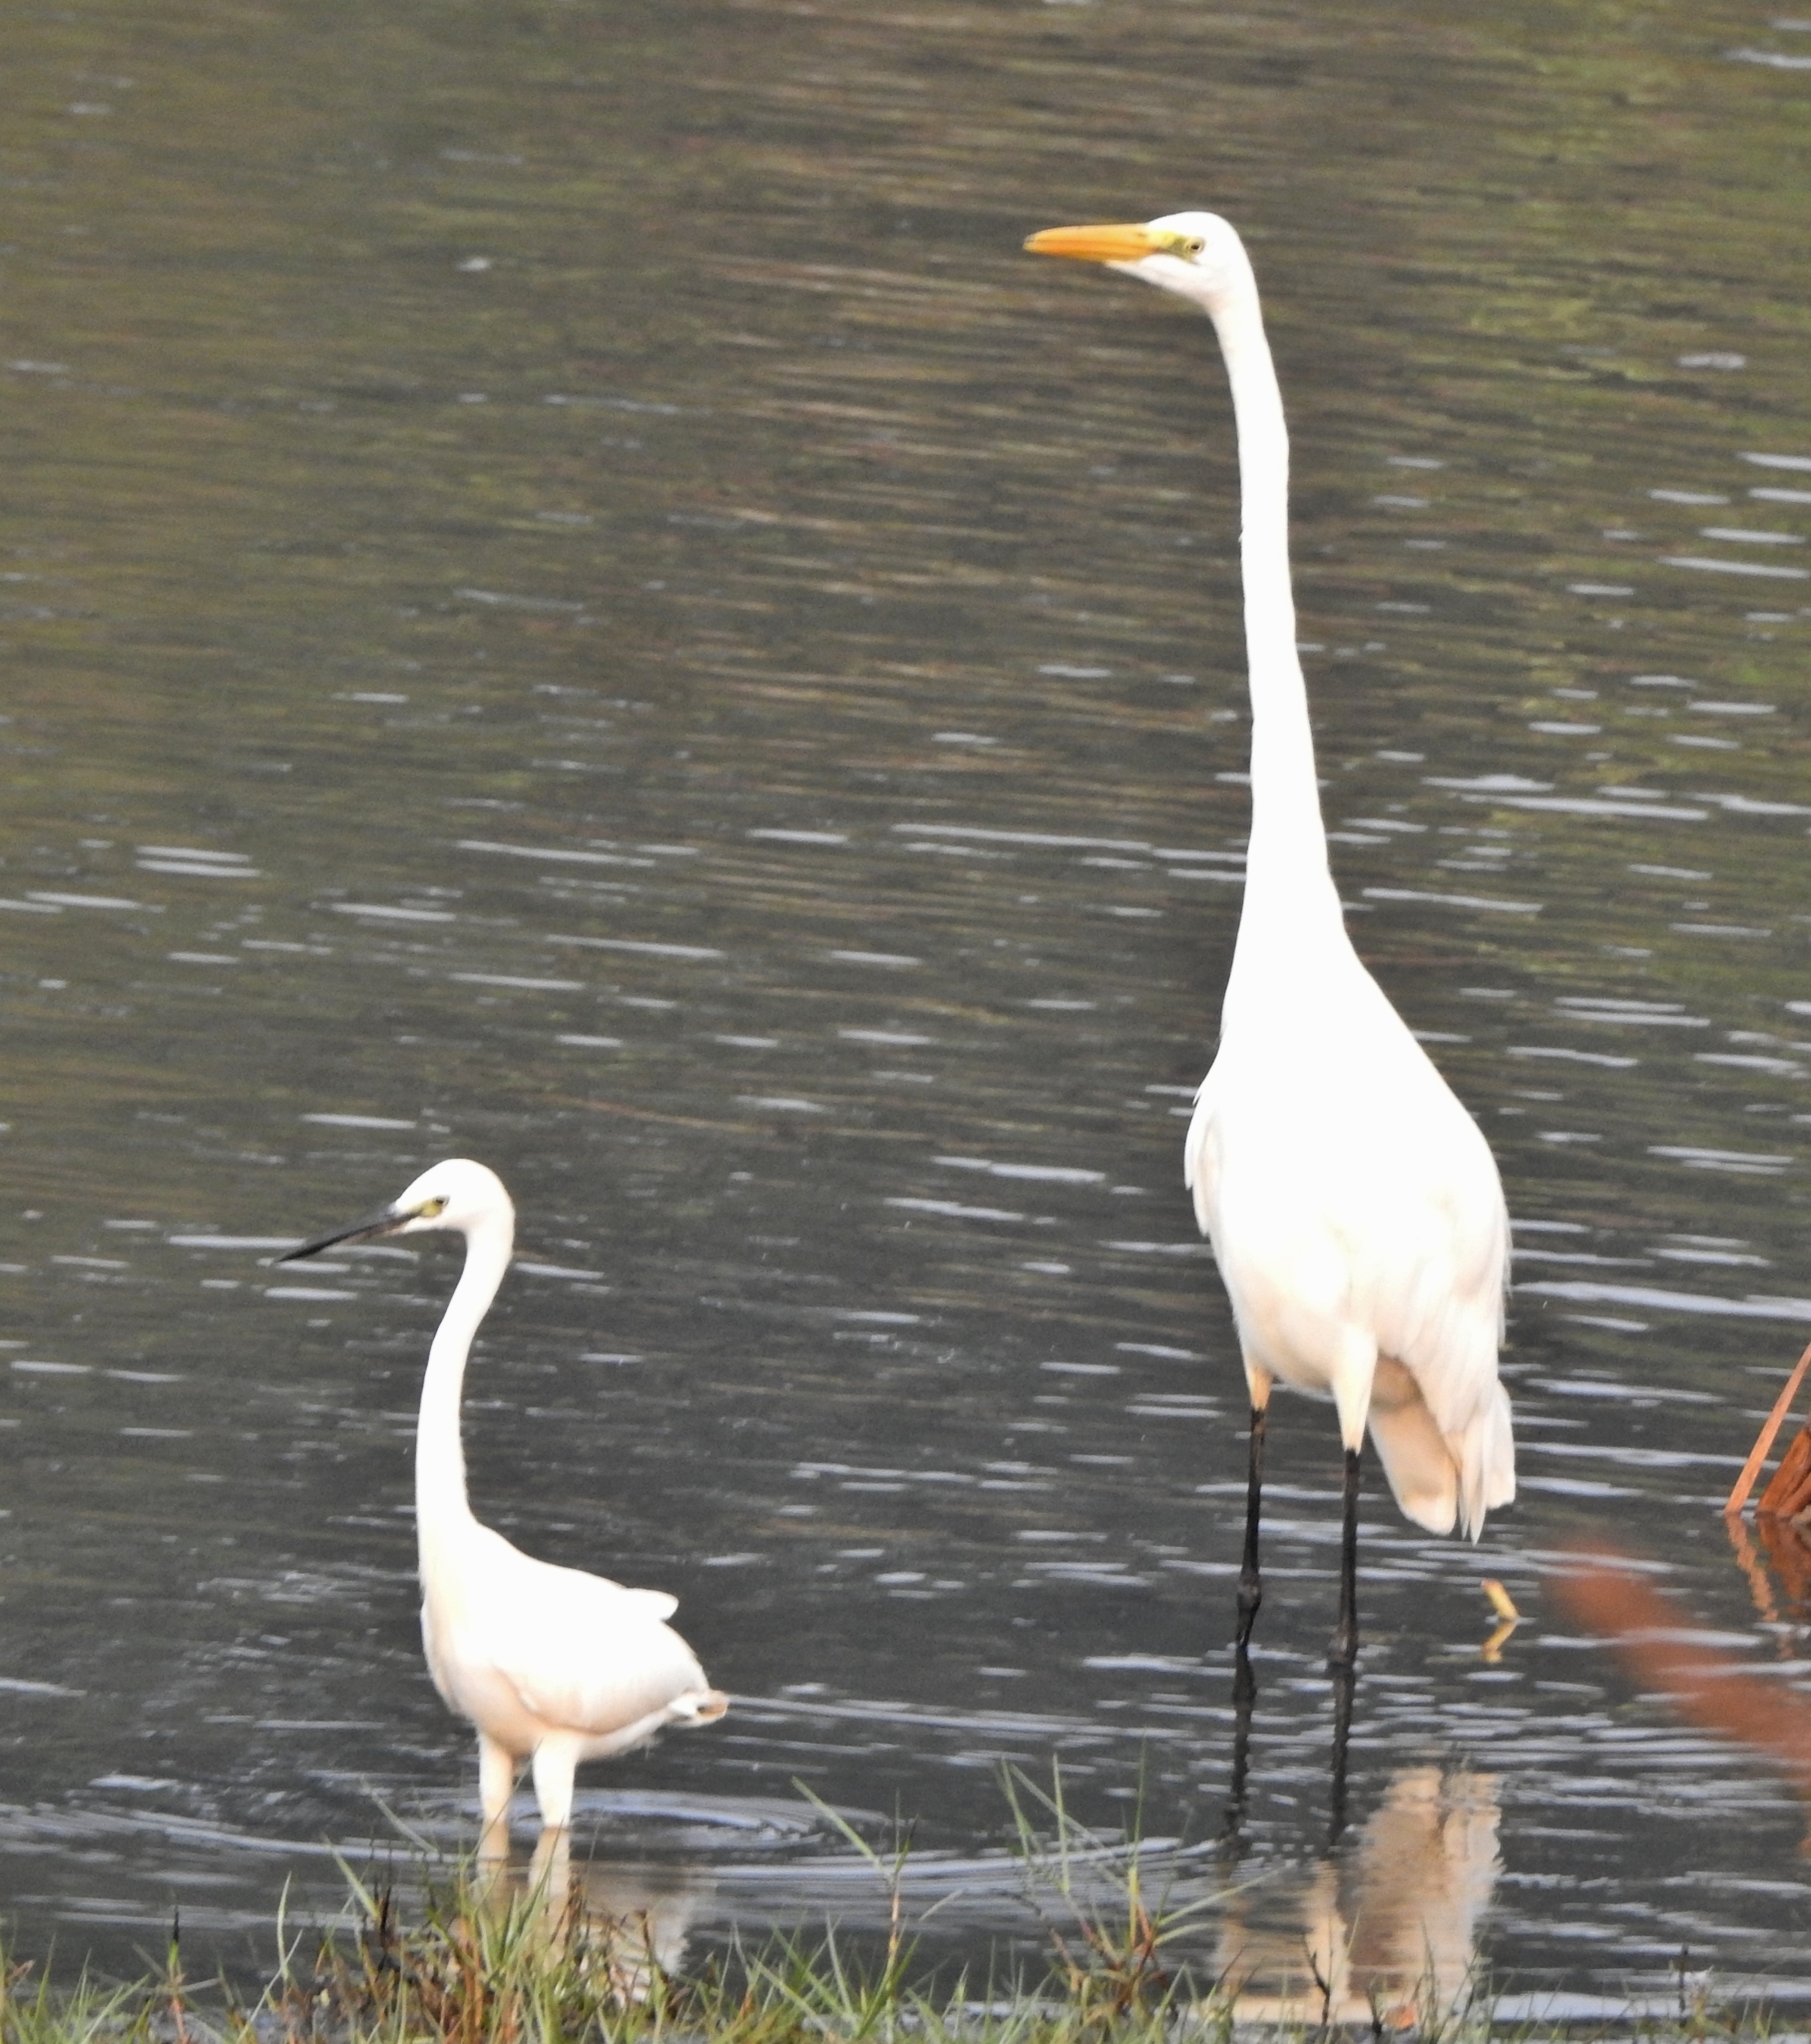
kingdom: Animalia
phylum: Chordata
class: Aves
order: Pelecaniformes
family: Ardeidae
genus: Egretta
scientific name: Egretta garzetta
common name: Little egret
